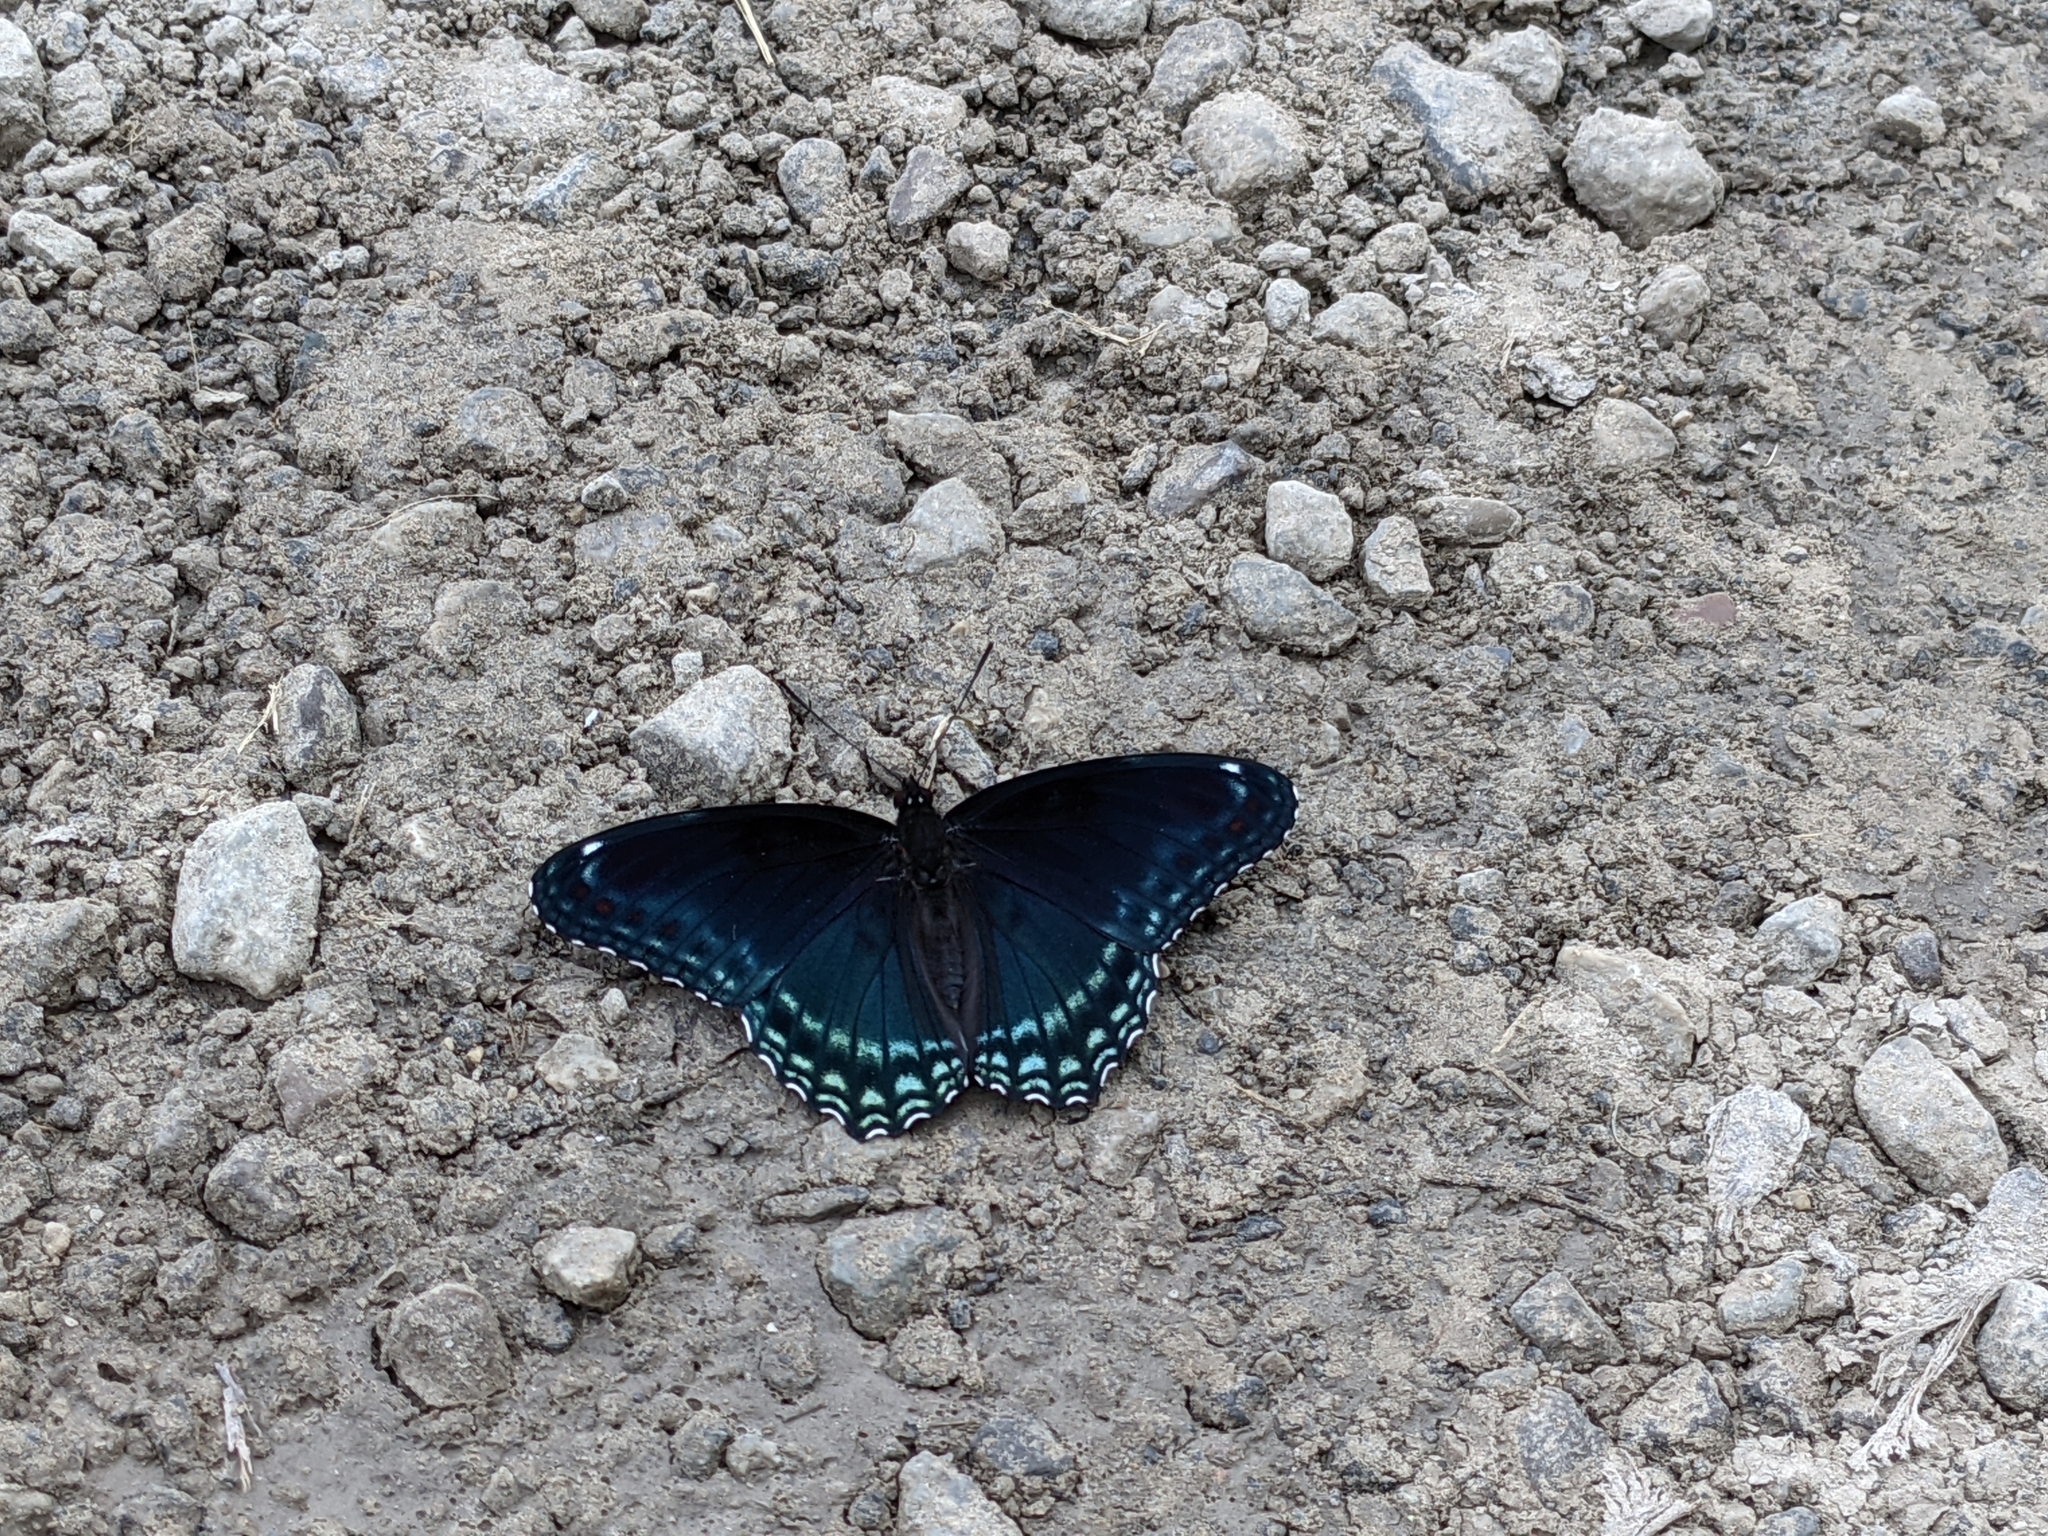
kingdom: Animalia
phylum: Arthropoda
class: Insecta
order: Lepidoptera
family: Nymphalidae
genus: Limenitis
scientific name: Limenitis astyanax
